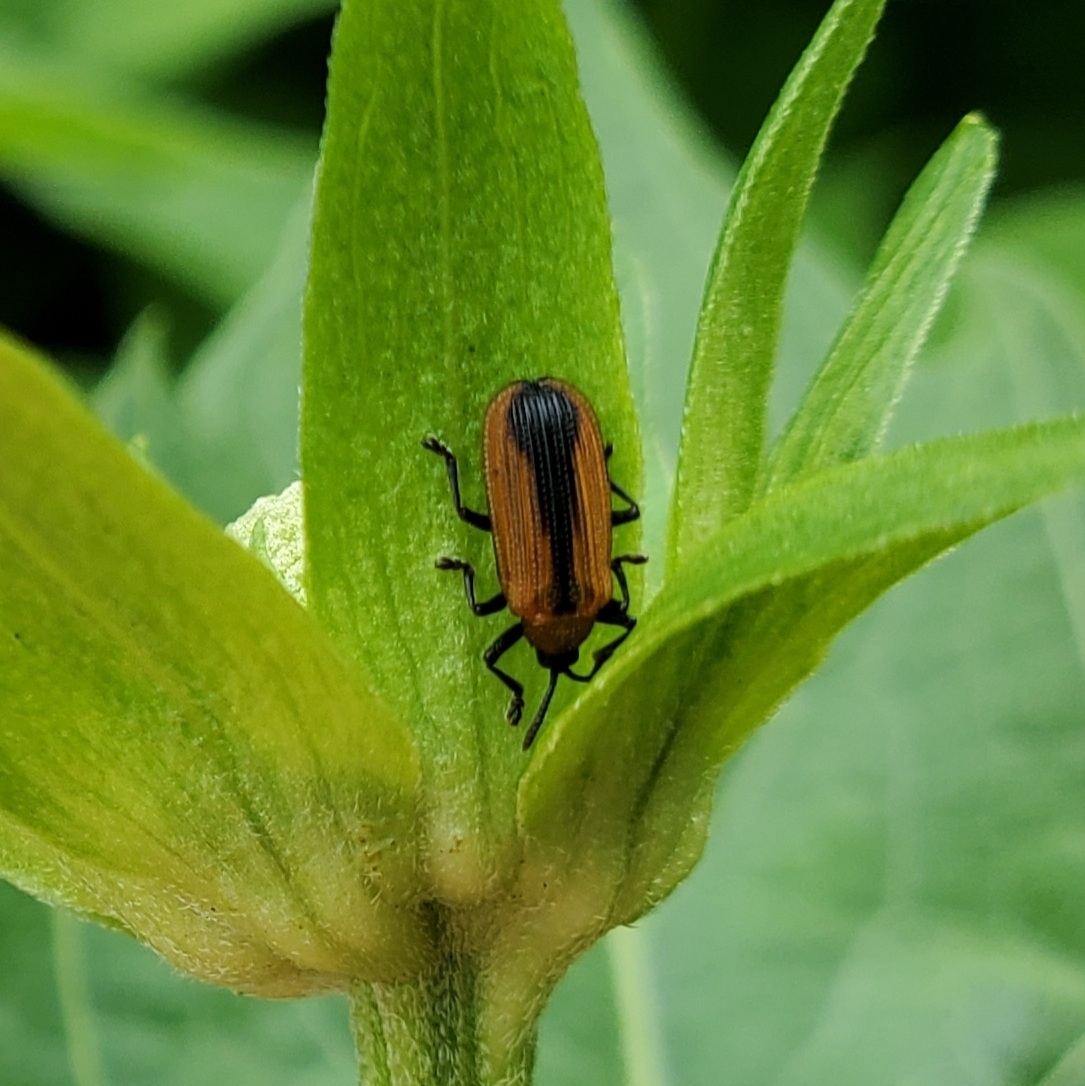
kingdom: Animalia
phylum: Arthropoda
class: Insecta
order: Coleoptera
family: Chrysomelidae
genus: Odontota
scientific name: Odontota dorsalis
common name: Locust leaf-miner beetle
